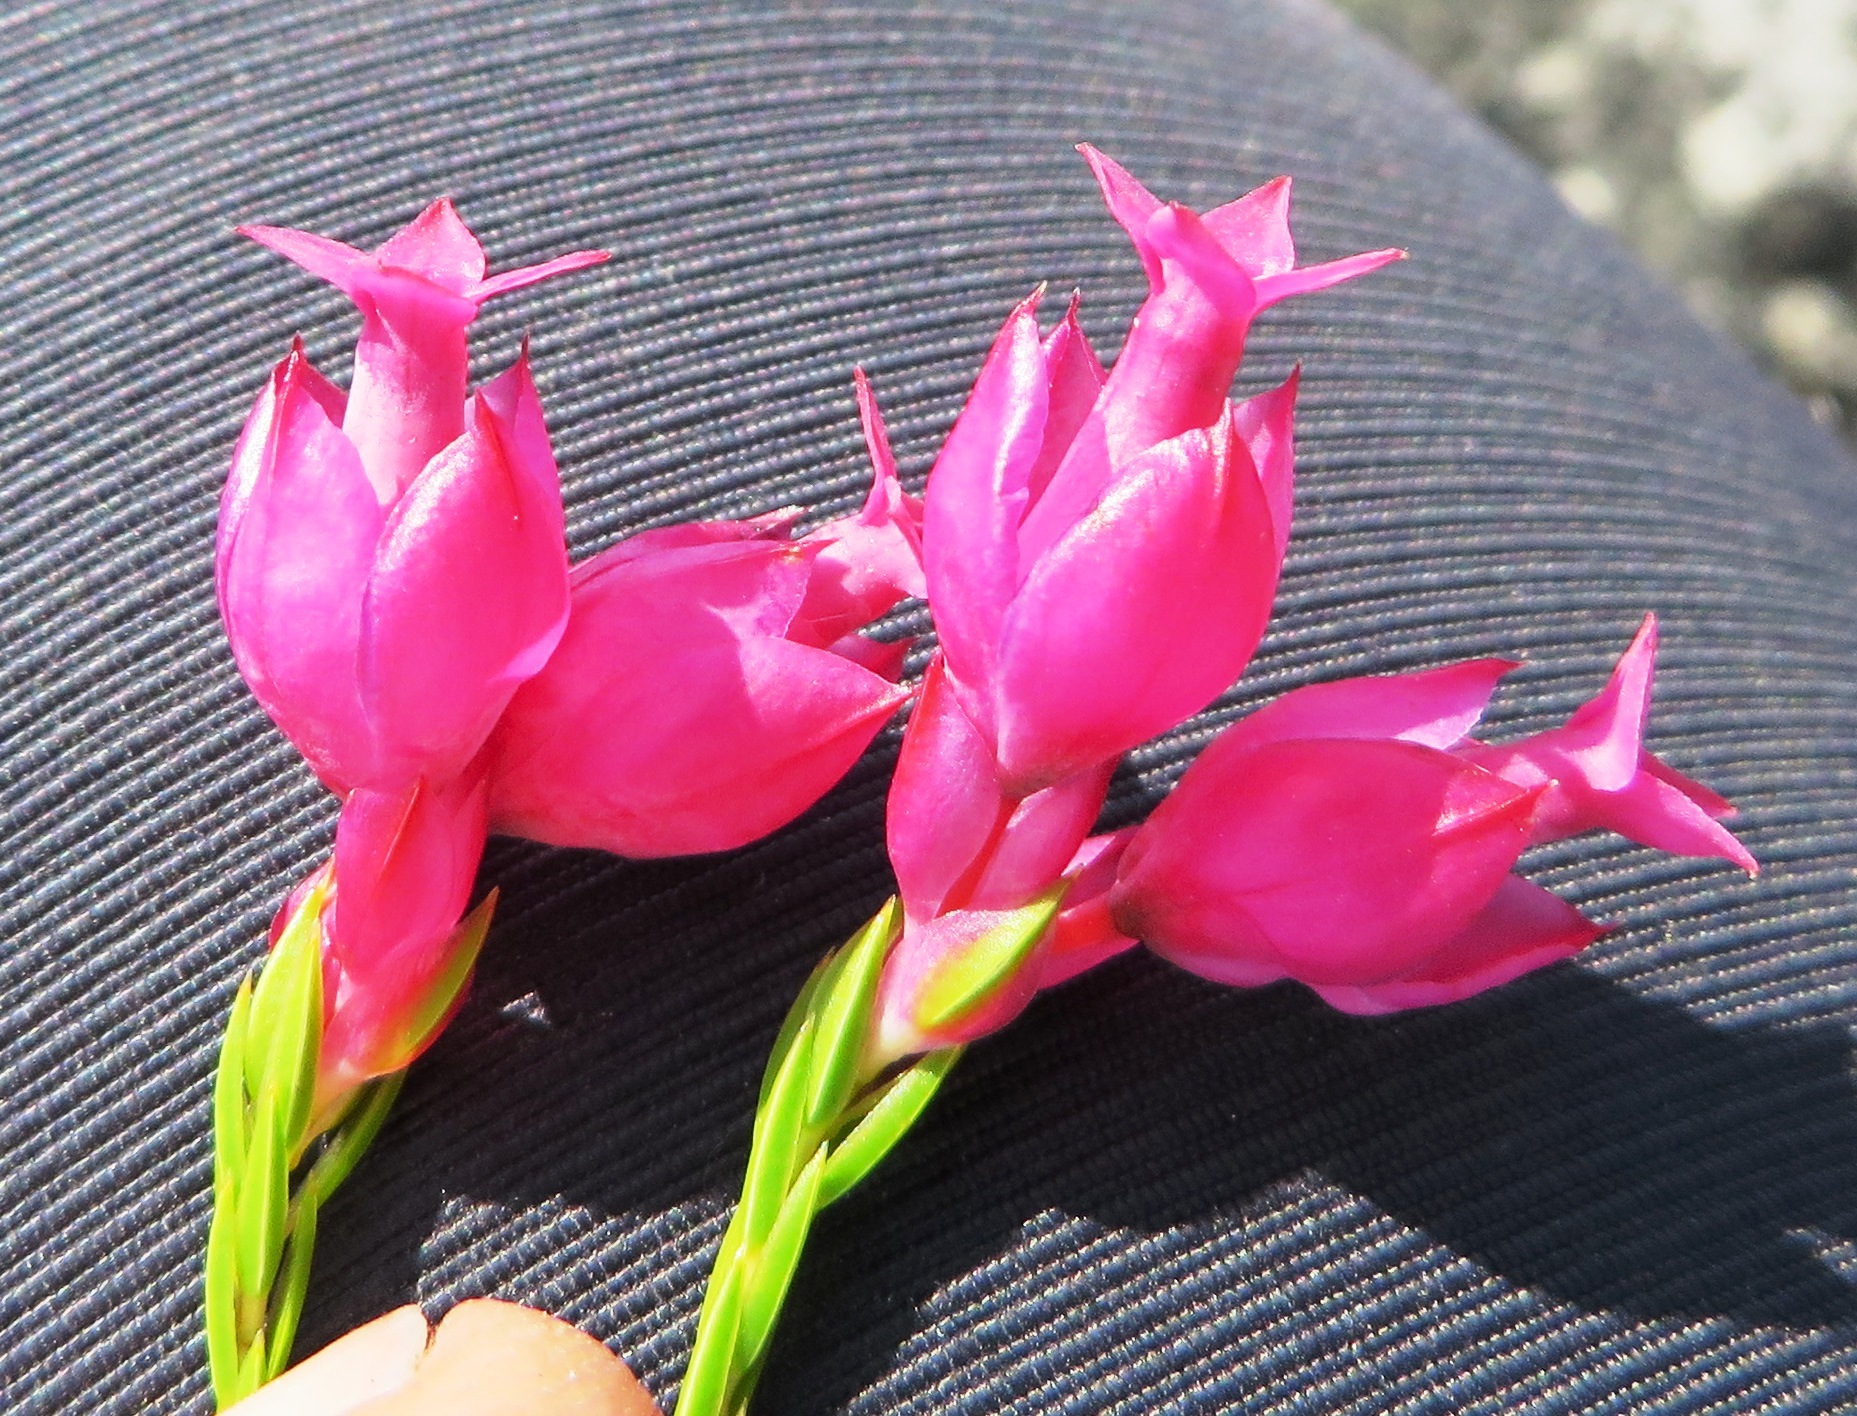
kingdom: Plantae
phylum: Tracheophyta
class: Magnoliopsida
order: Ericales
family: Ericaceae
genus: Erica
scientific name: Erica borboniifolia
